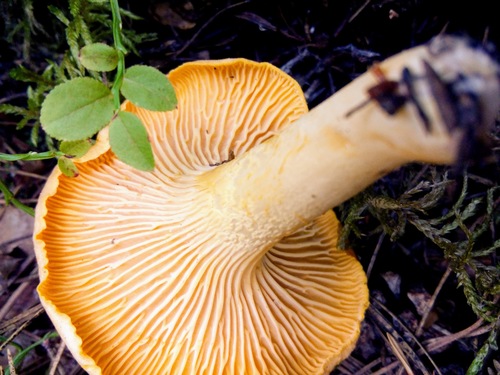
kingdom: Fungi
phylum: Basidiomycota
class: Agaricomycetes
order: Cantharellales
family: Hydnaceae
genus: Cantharellus
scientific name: Cantharellus cibarius
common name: Chanterelle
